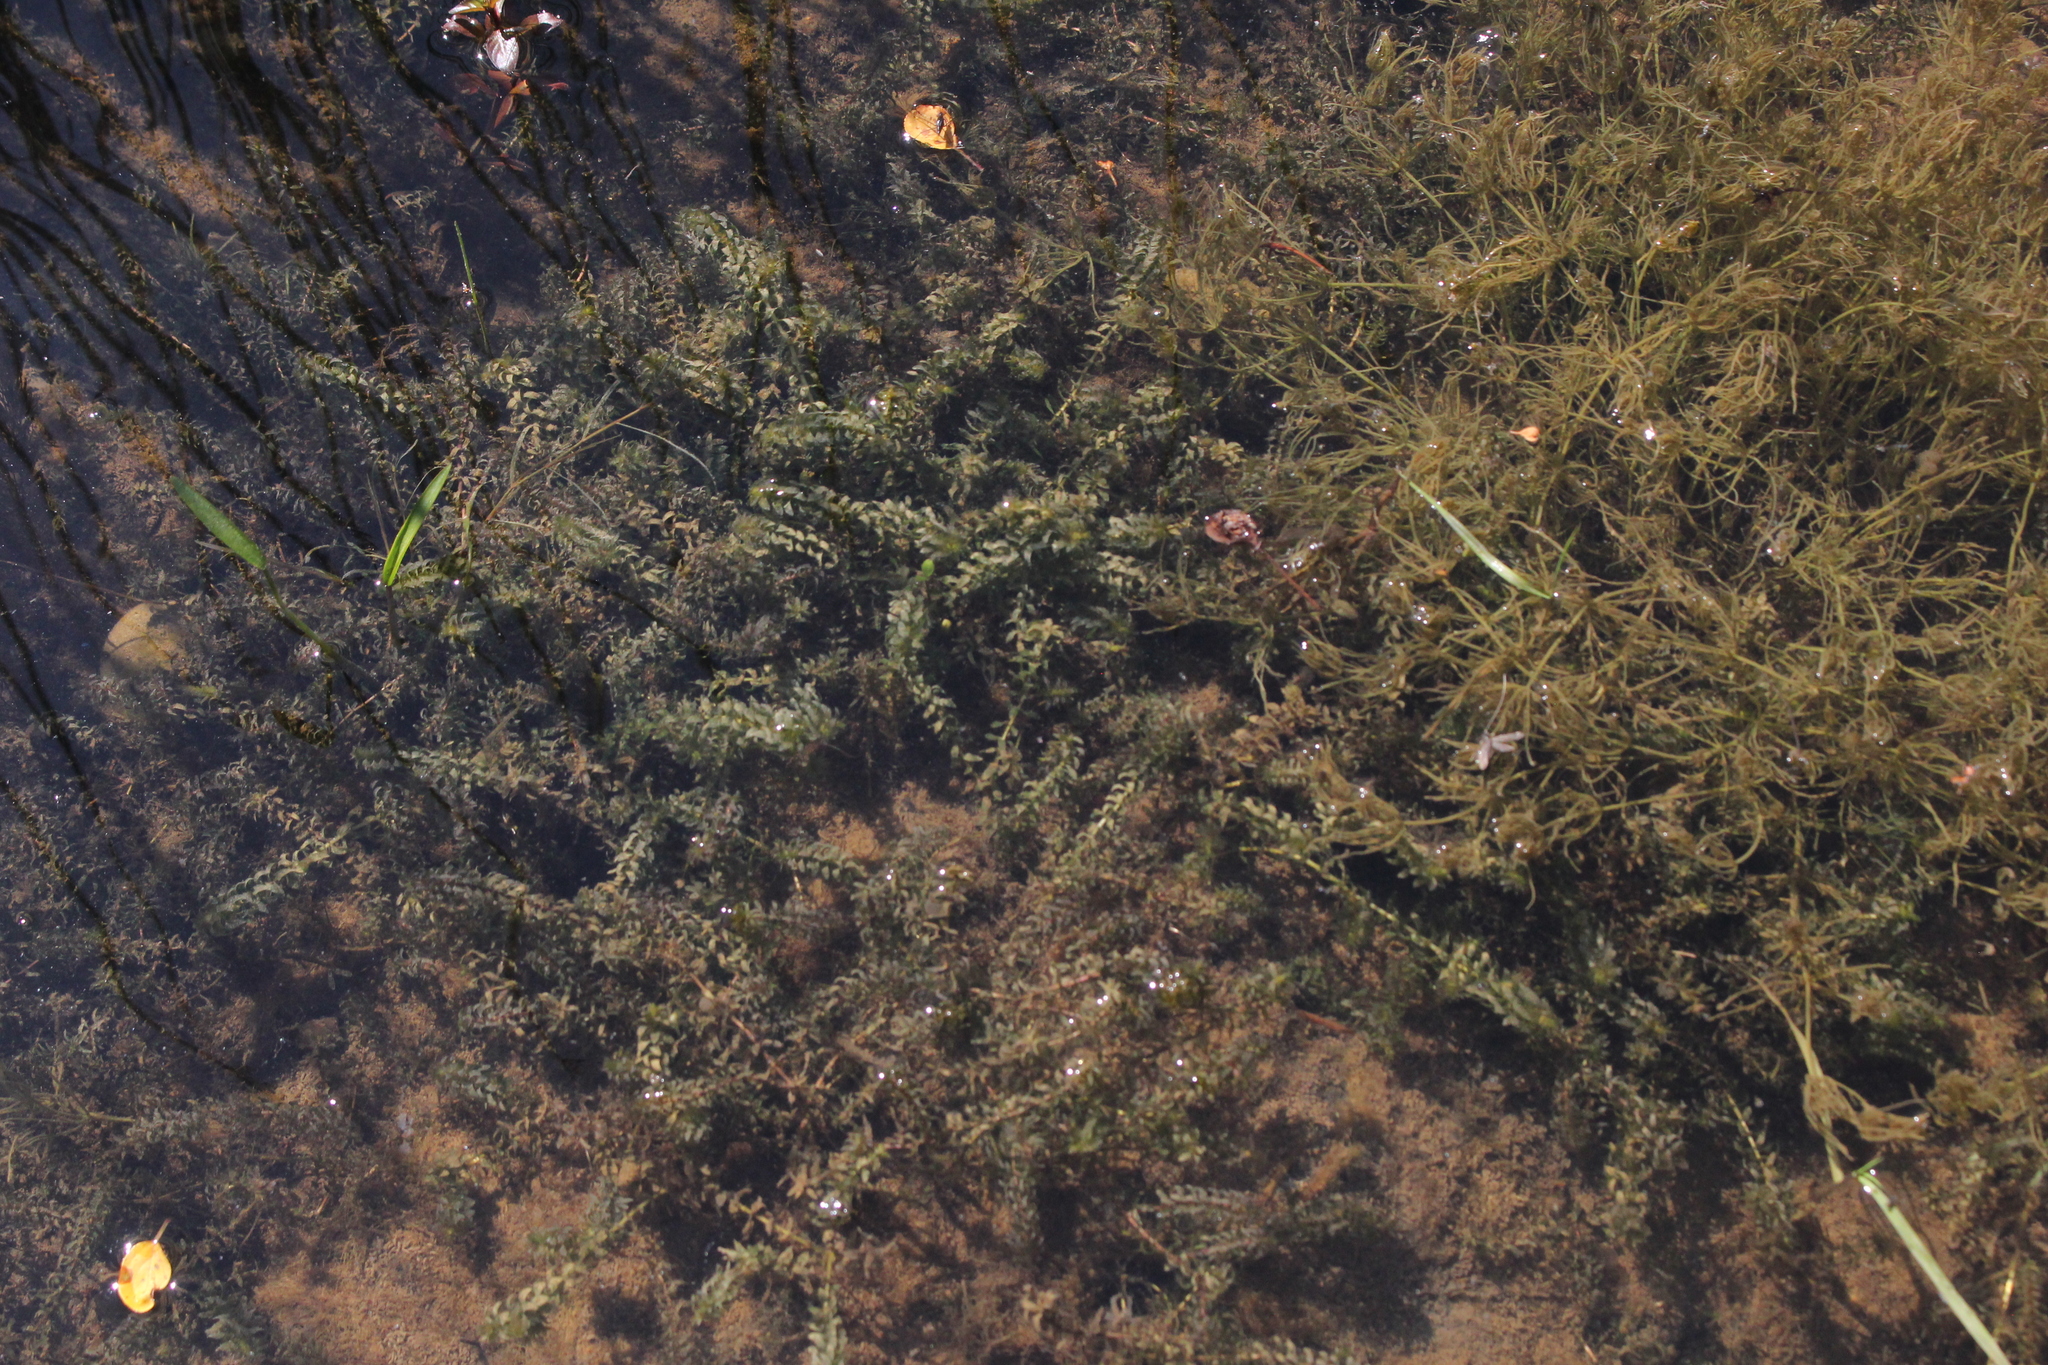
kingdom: Plantae
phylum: Tracheophyta
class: Liliopsida
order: Alismatales
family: Hydrocharitaceae
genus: Elodea
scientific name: Elodea canadensis
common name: Canadian waterweed
